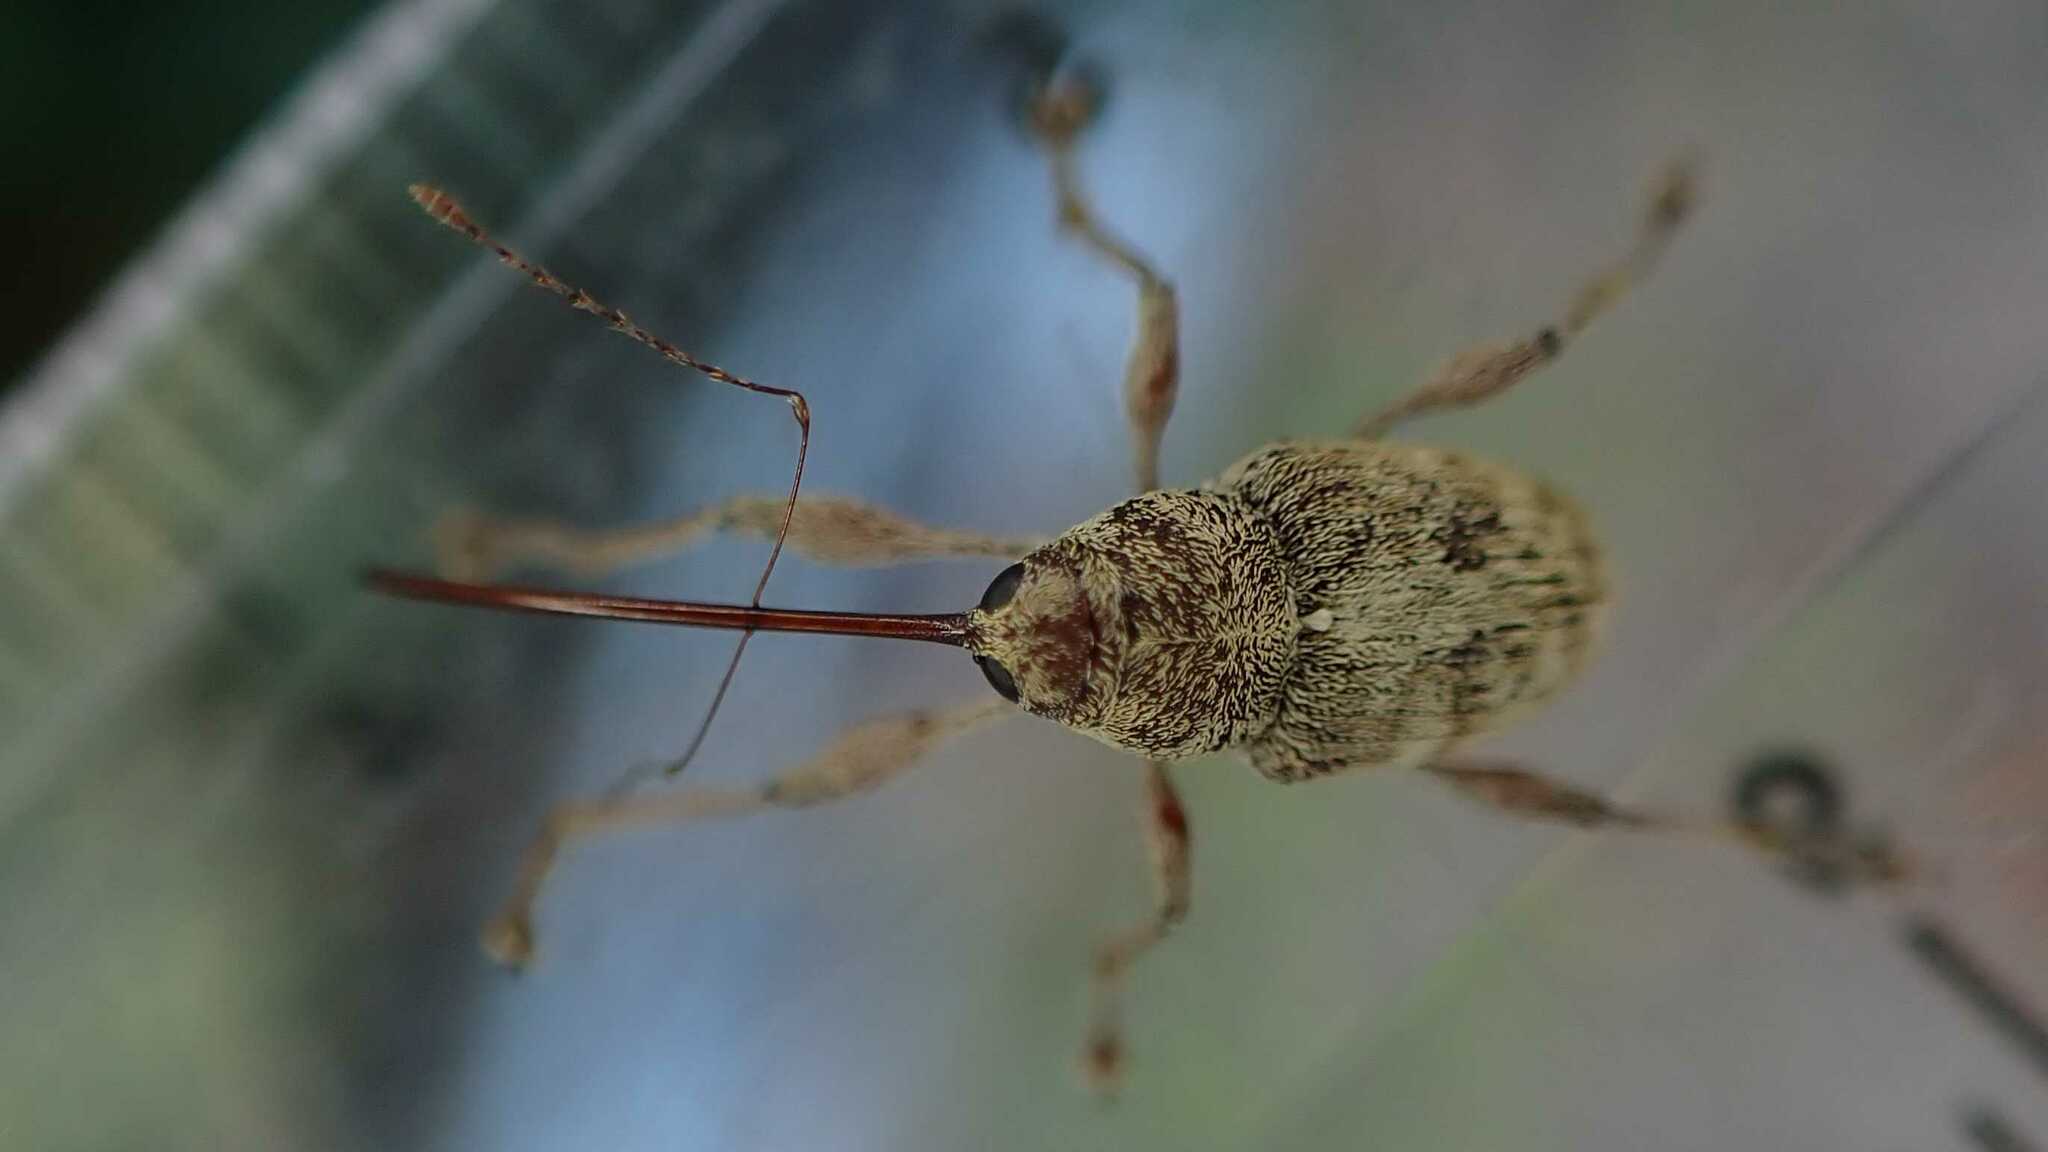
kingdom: Animalia
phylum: Arthropoda
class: Insecta
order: Coleoptera
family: Curculionidae
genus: Curculio
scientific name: Curculio elephas
